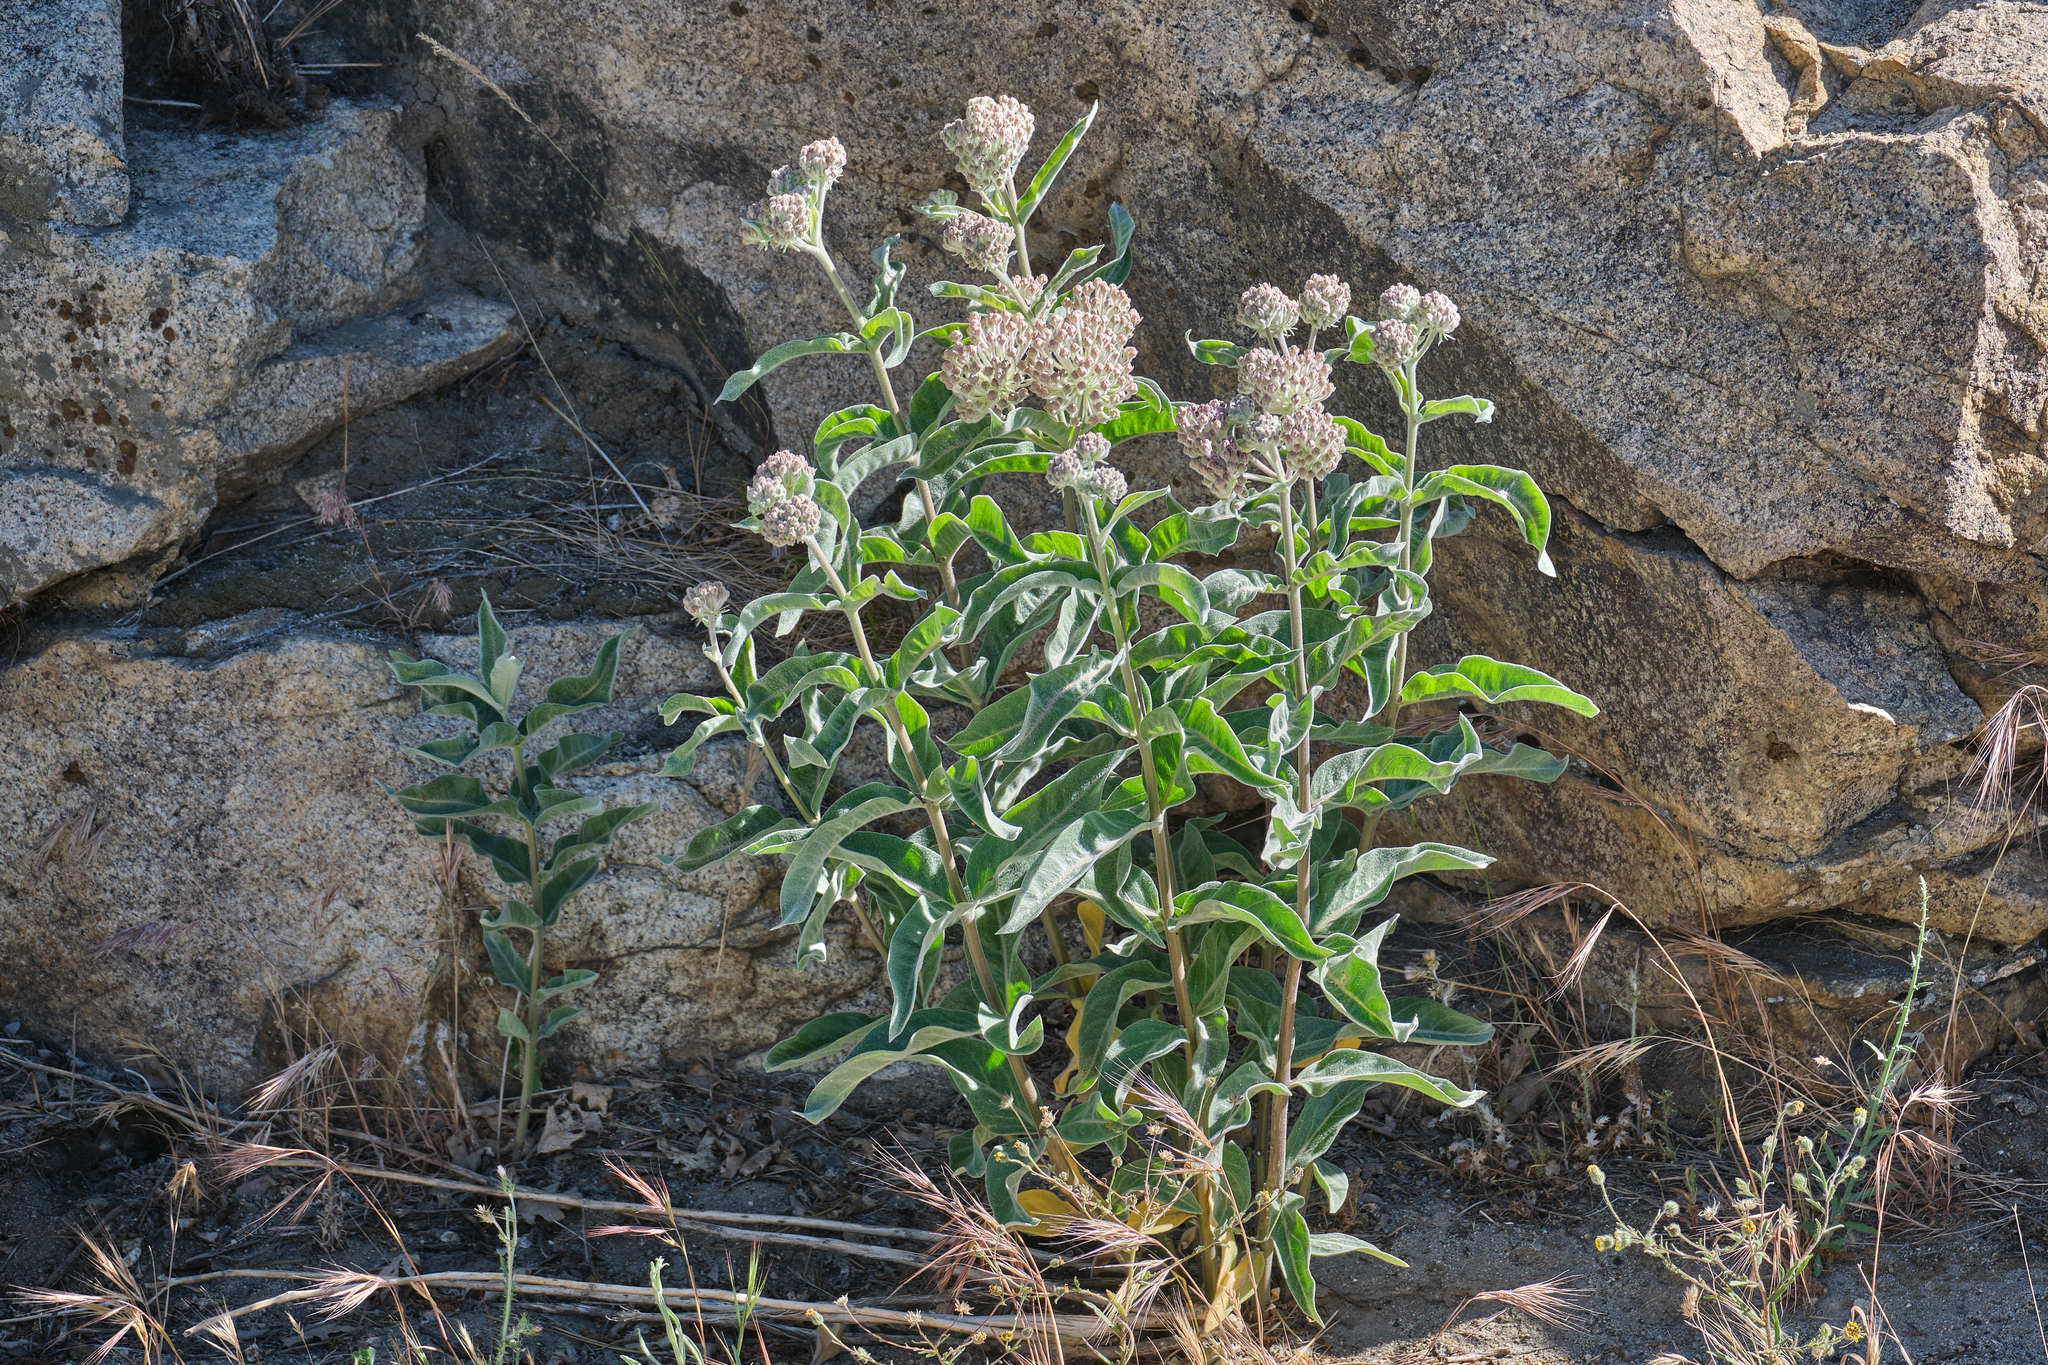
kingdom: Plantae
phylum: Tracheophyta
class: Magnoliopsida
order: Gentianales
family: Apocynaceae
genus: Asclepias
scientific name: Asclepias eriocarpa
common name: Indian milkweed
